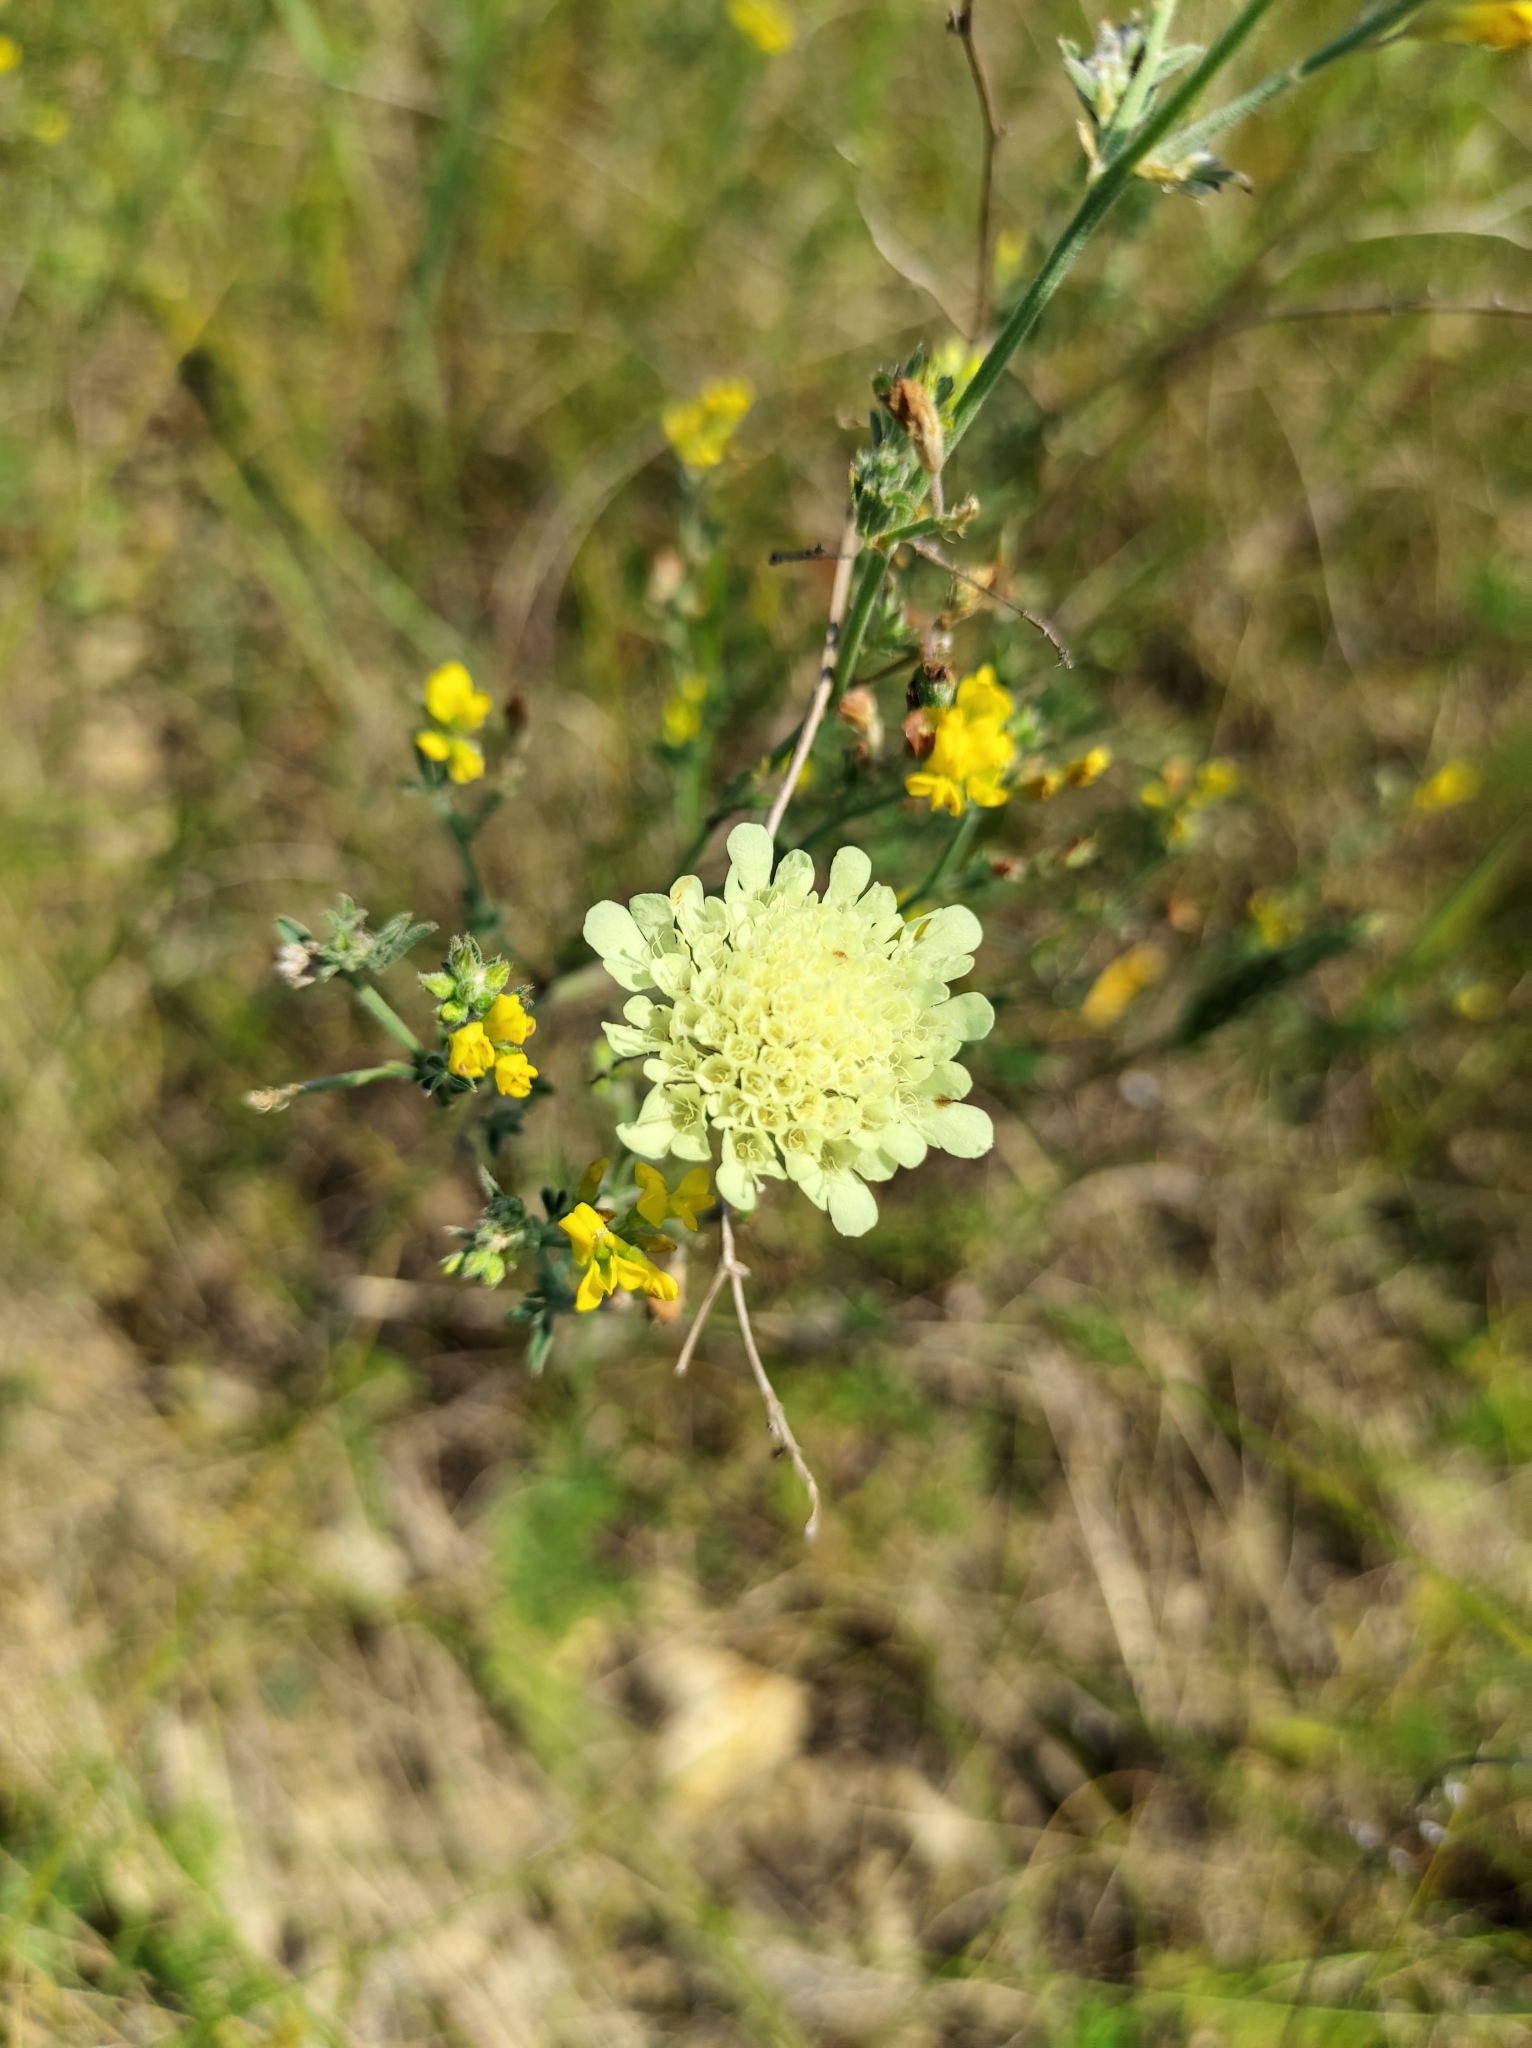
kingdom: Plantae
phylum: Tracheophyta
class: Magnoliopsida
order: Dipsacales
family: Caprifoliaceae
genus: Scabiosa
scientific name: Scabiosa ochroleuca
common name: Cream pincushions
